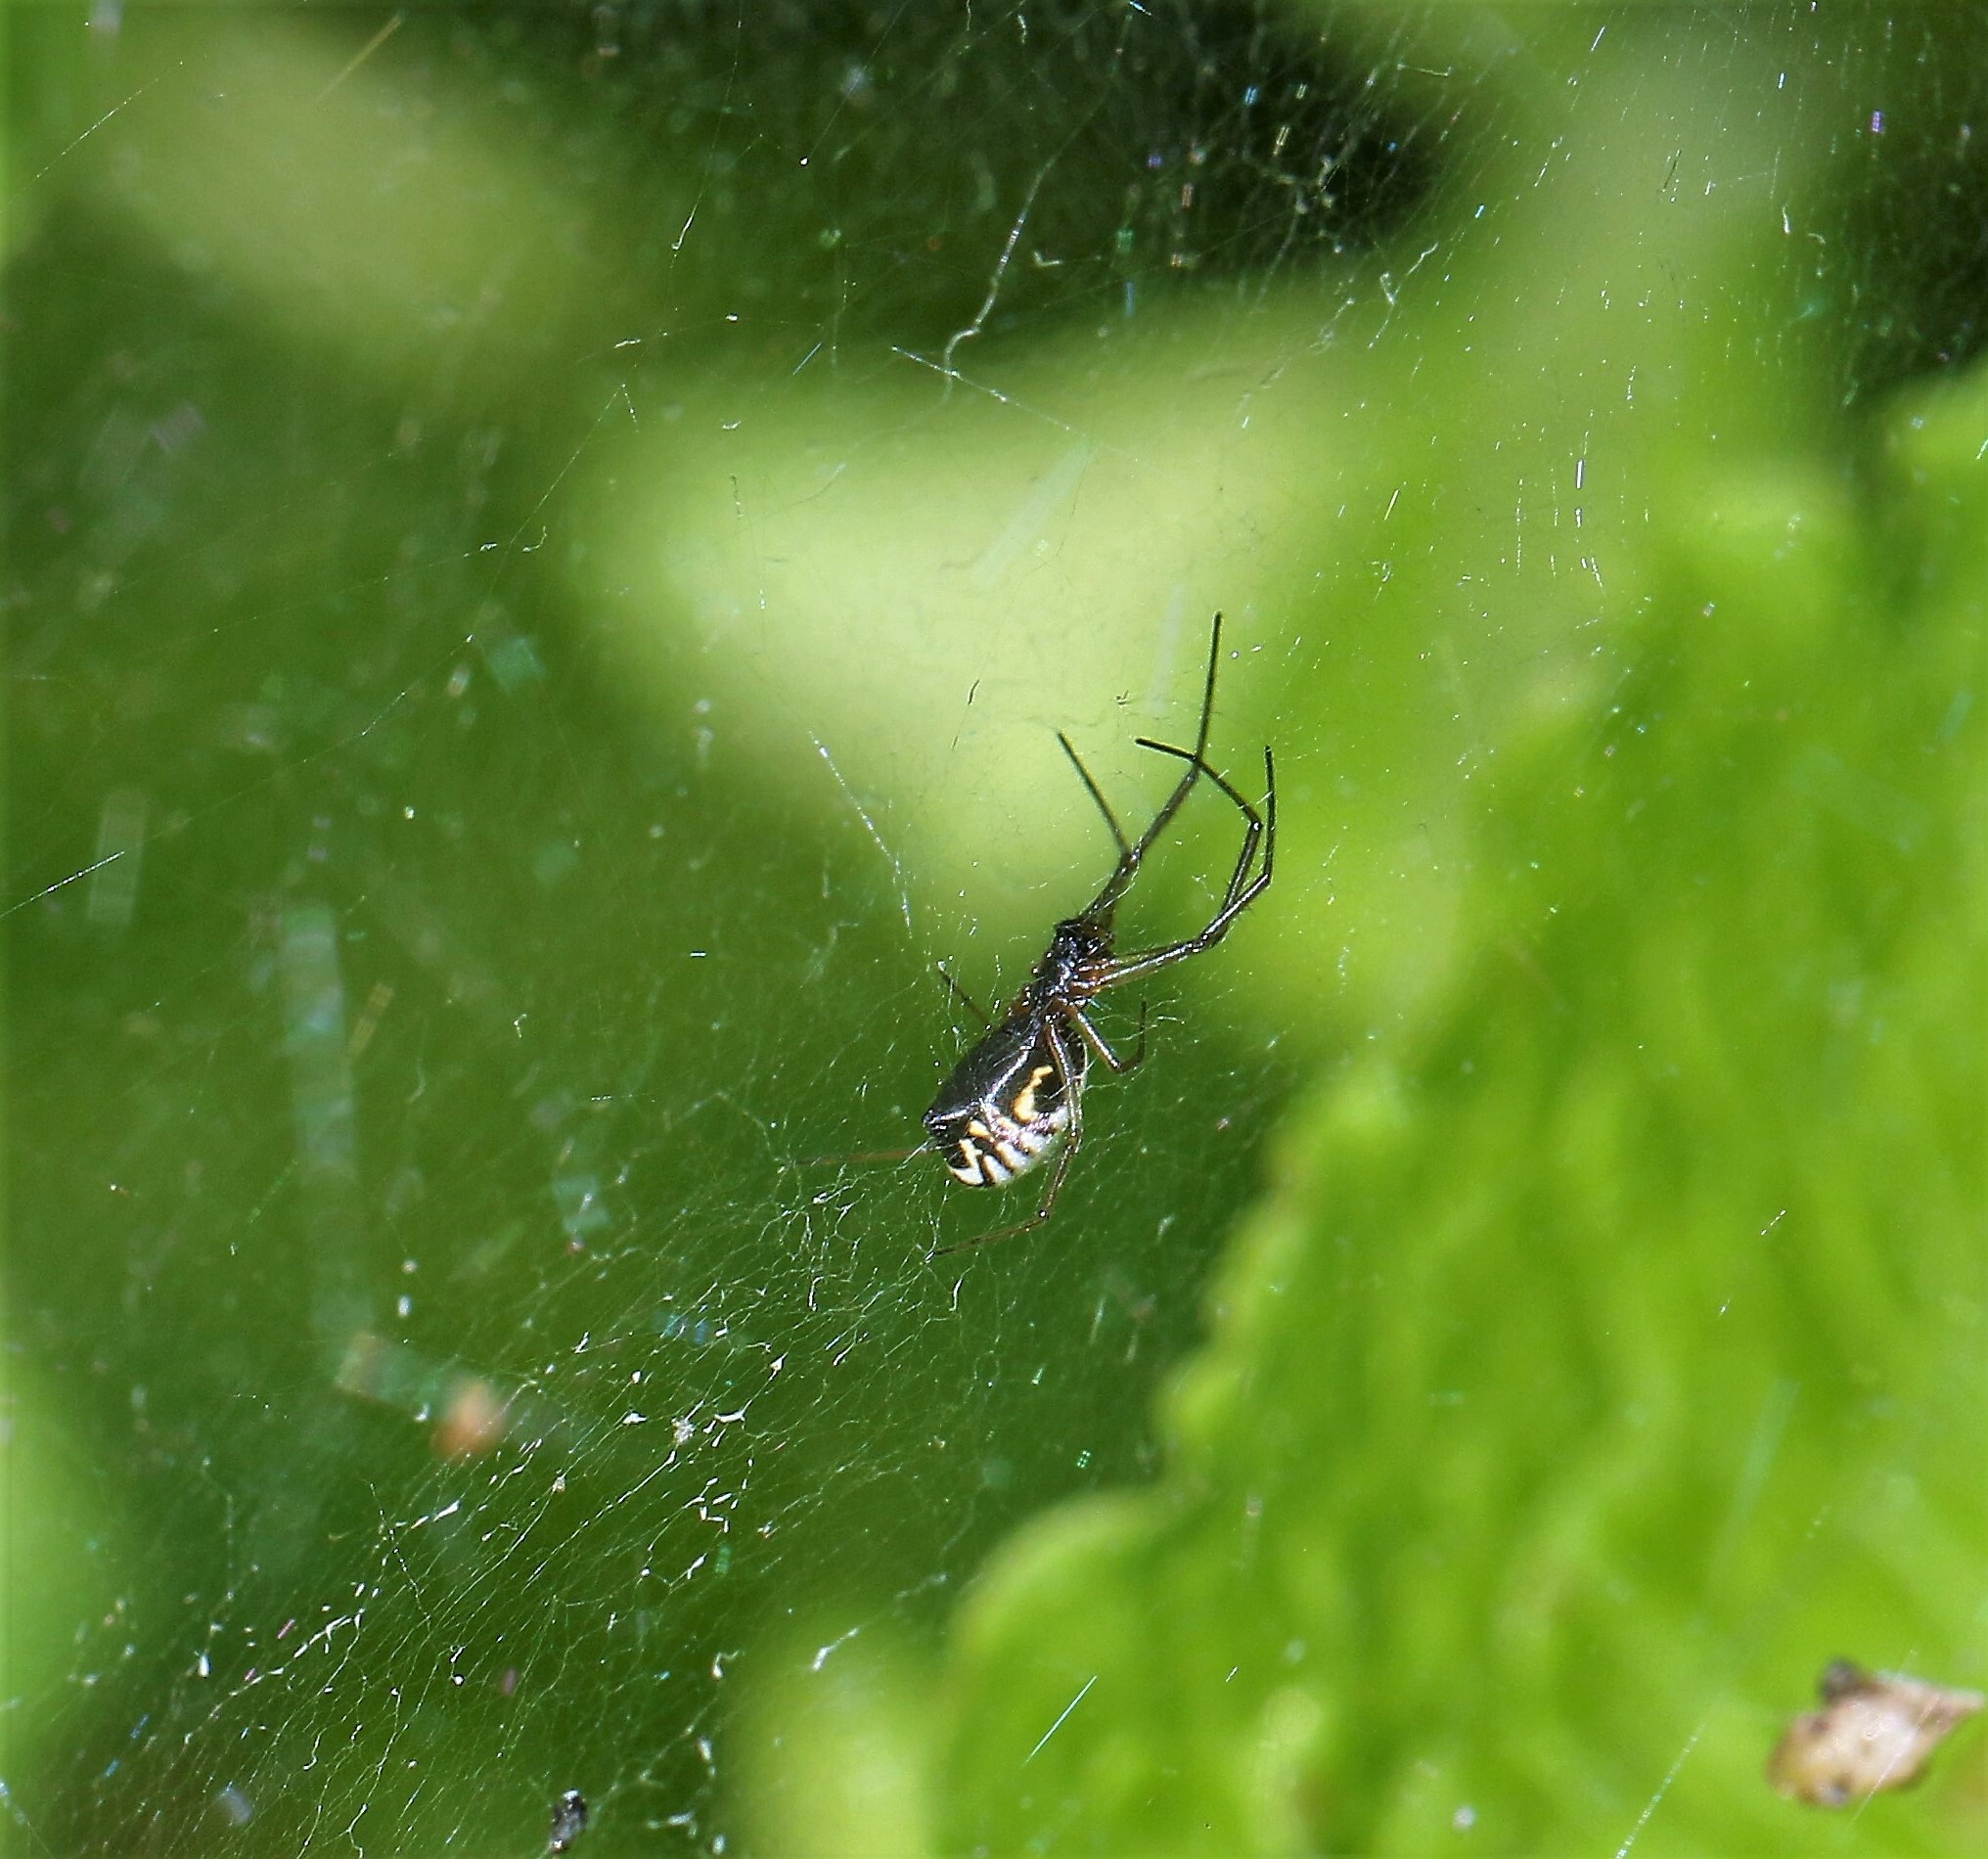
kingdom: Animalia
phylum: Arthropoda
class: Arachnida
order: Araneae
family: Linyphiidae
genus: Frontinella
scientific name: Frontinella pyramitela
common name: Bowl-and-doily spider
